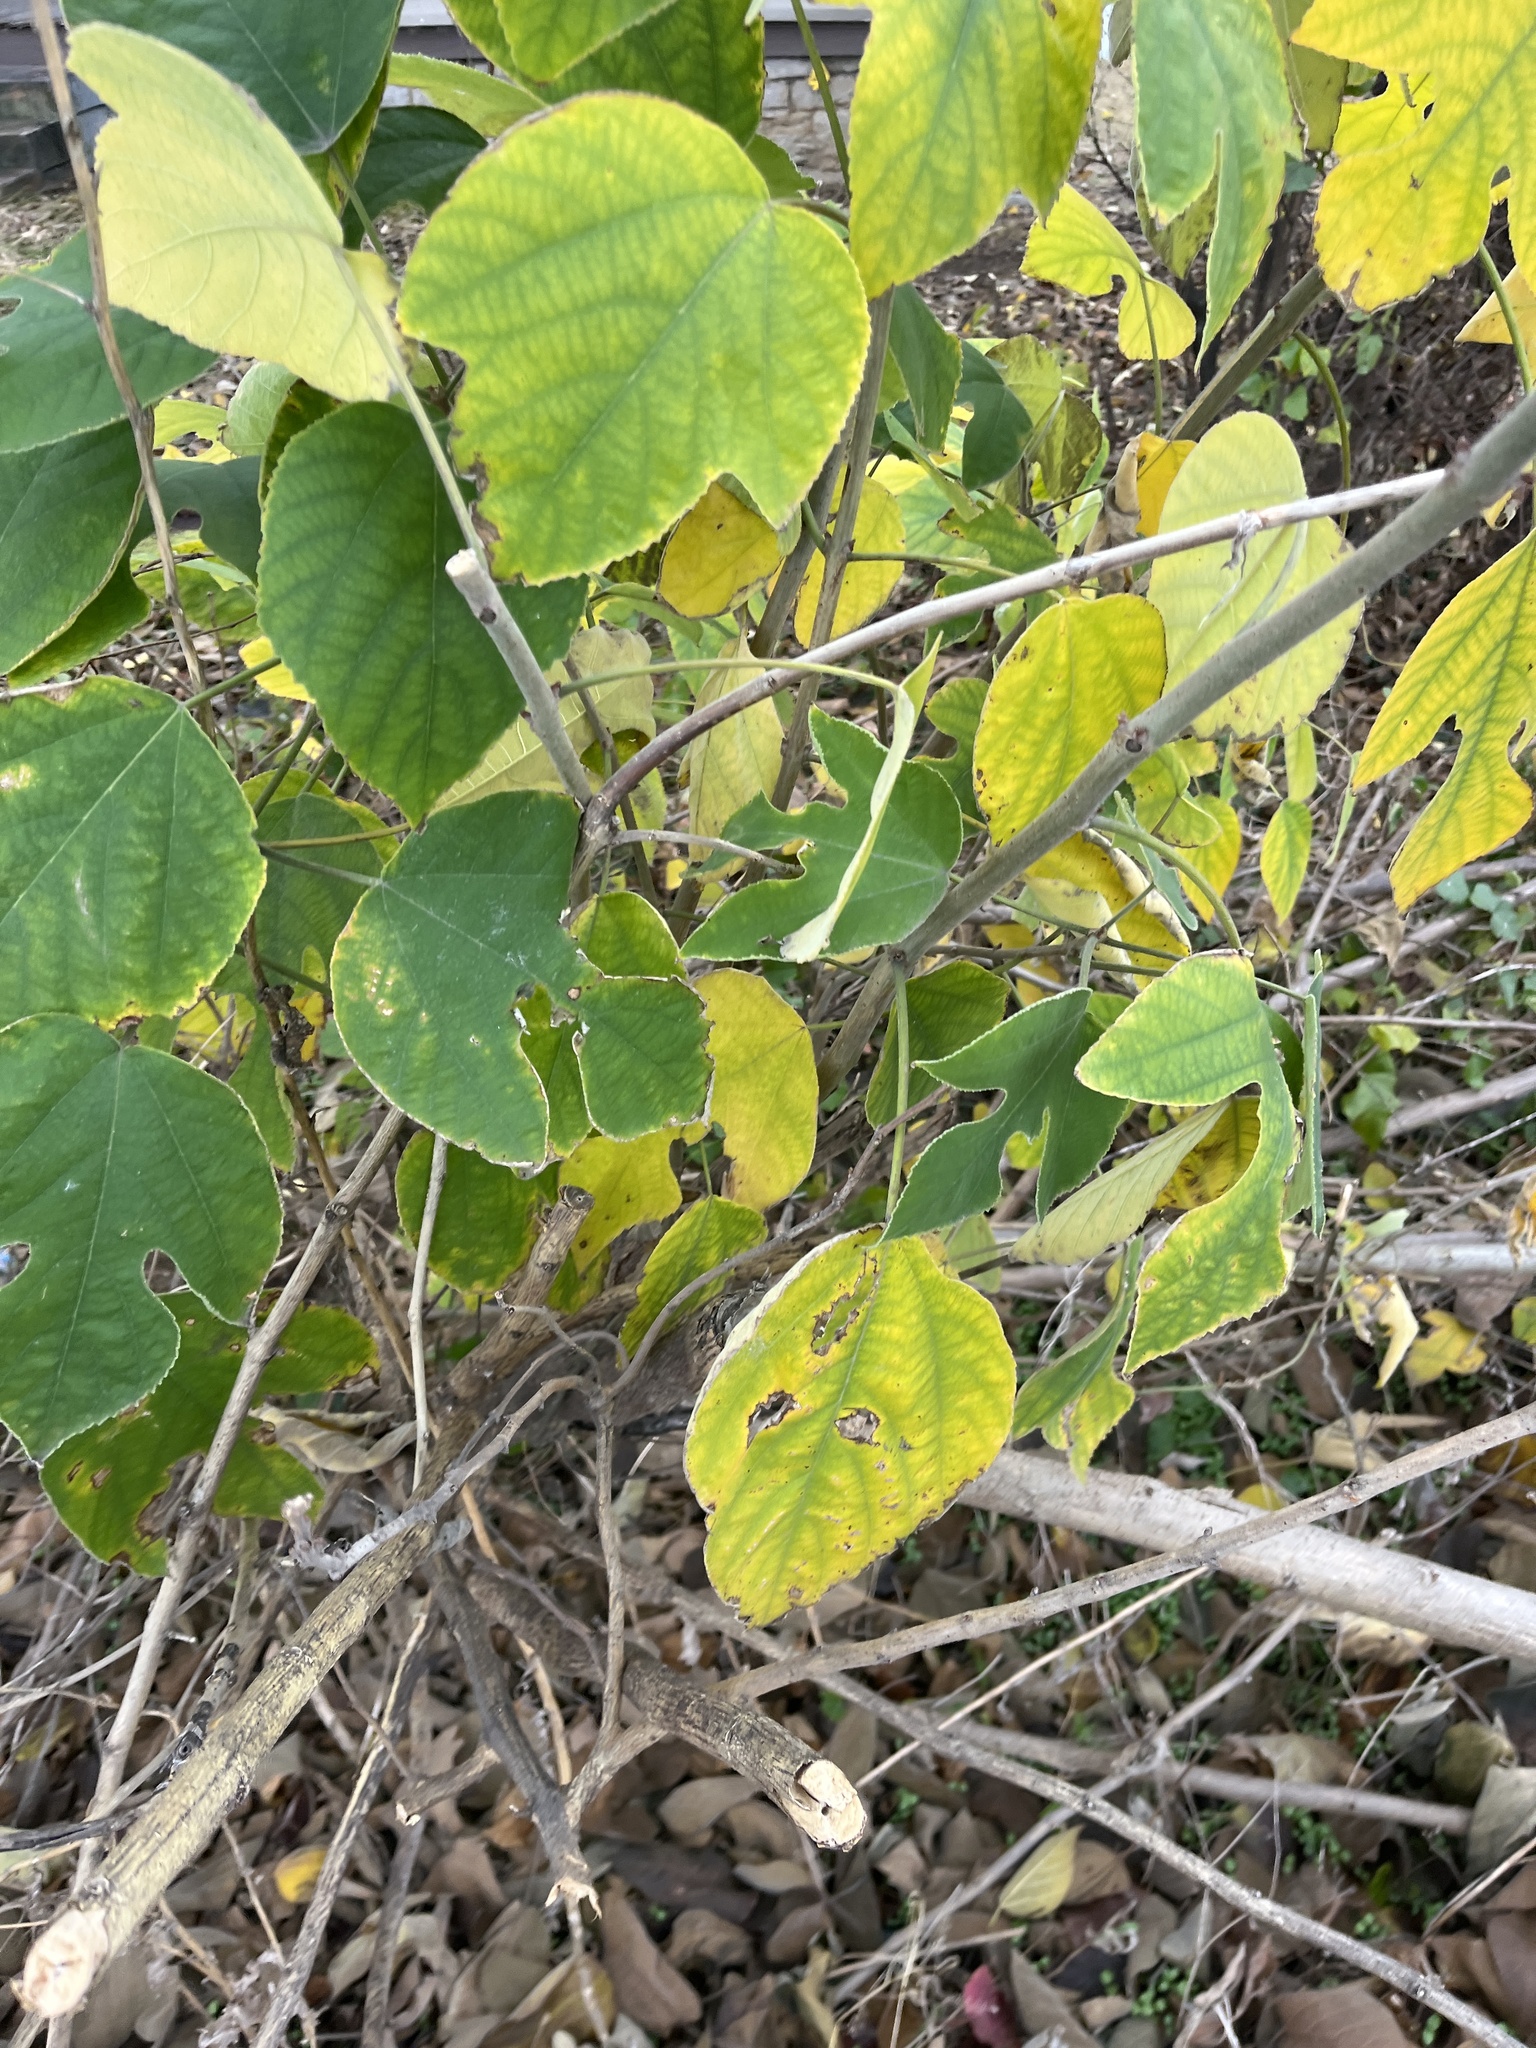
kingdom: Plantae
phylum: Tracheophyta
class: Magnoliopsida
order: Rosales
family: Moraceae
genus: Broussonetia
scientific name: Broussonetia papyrifera
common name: Paper mulberry
